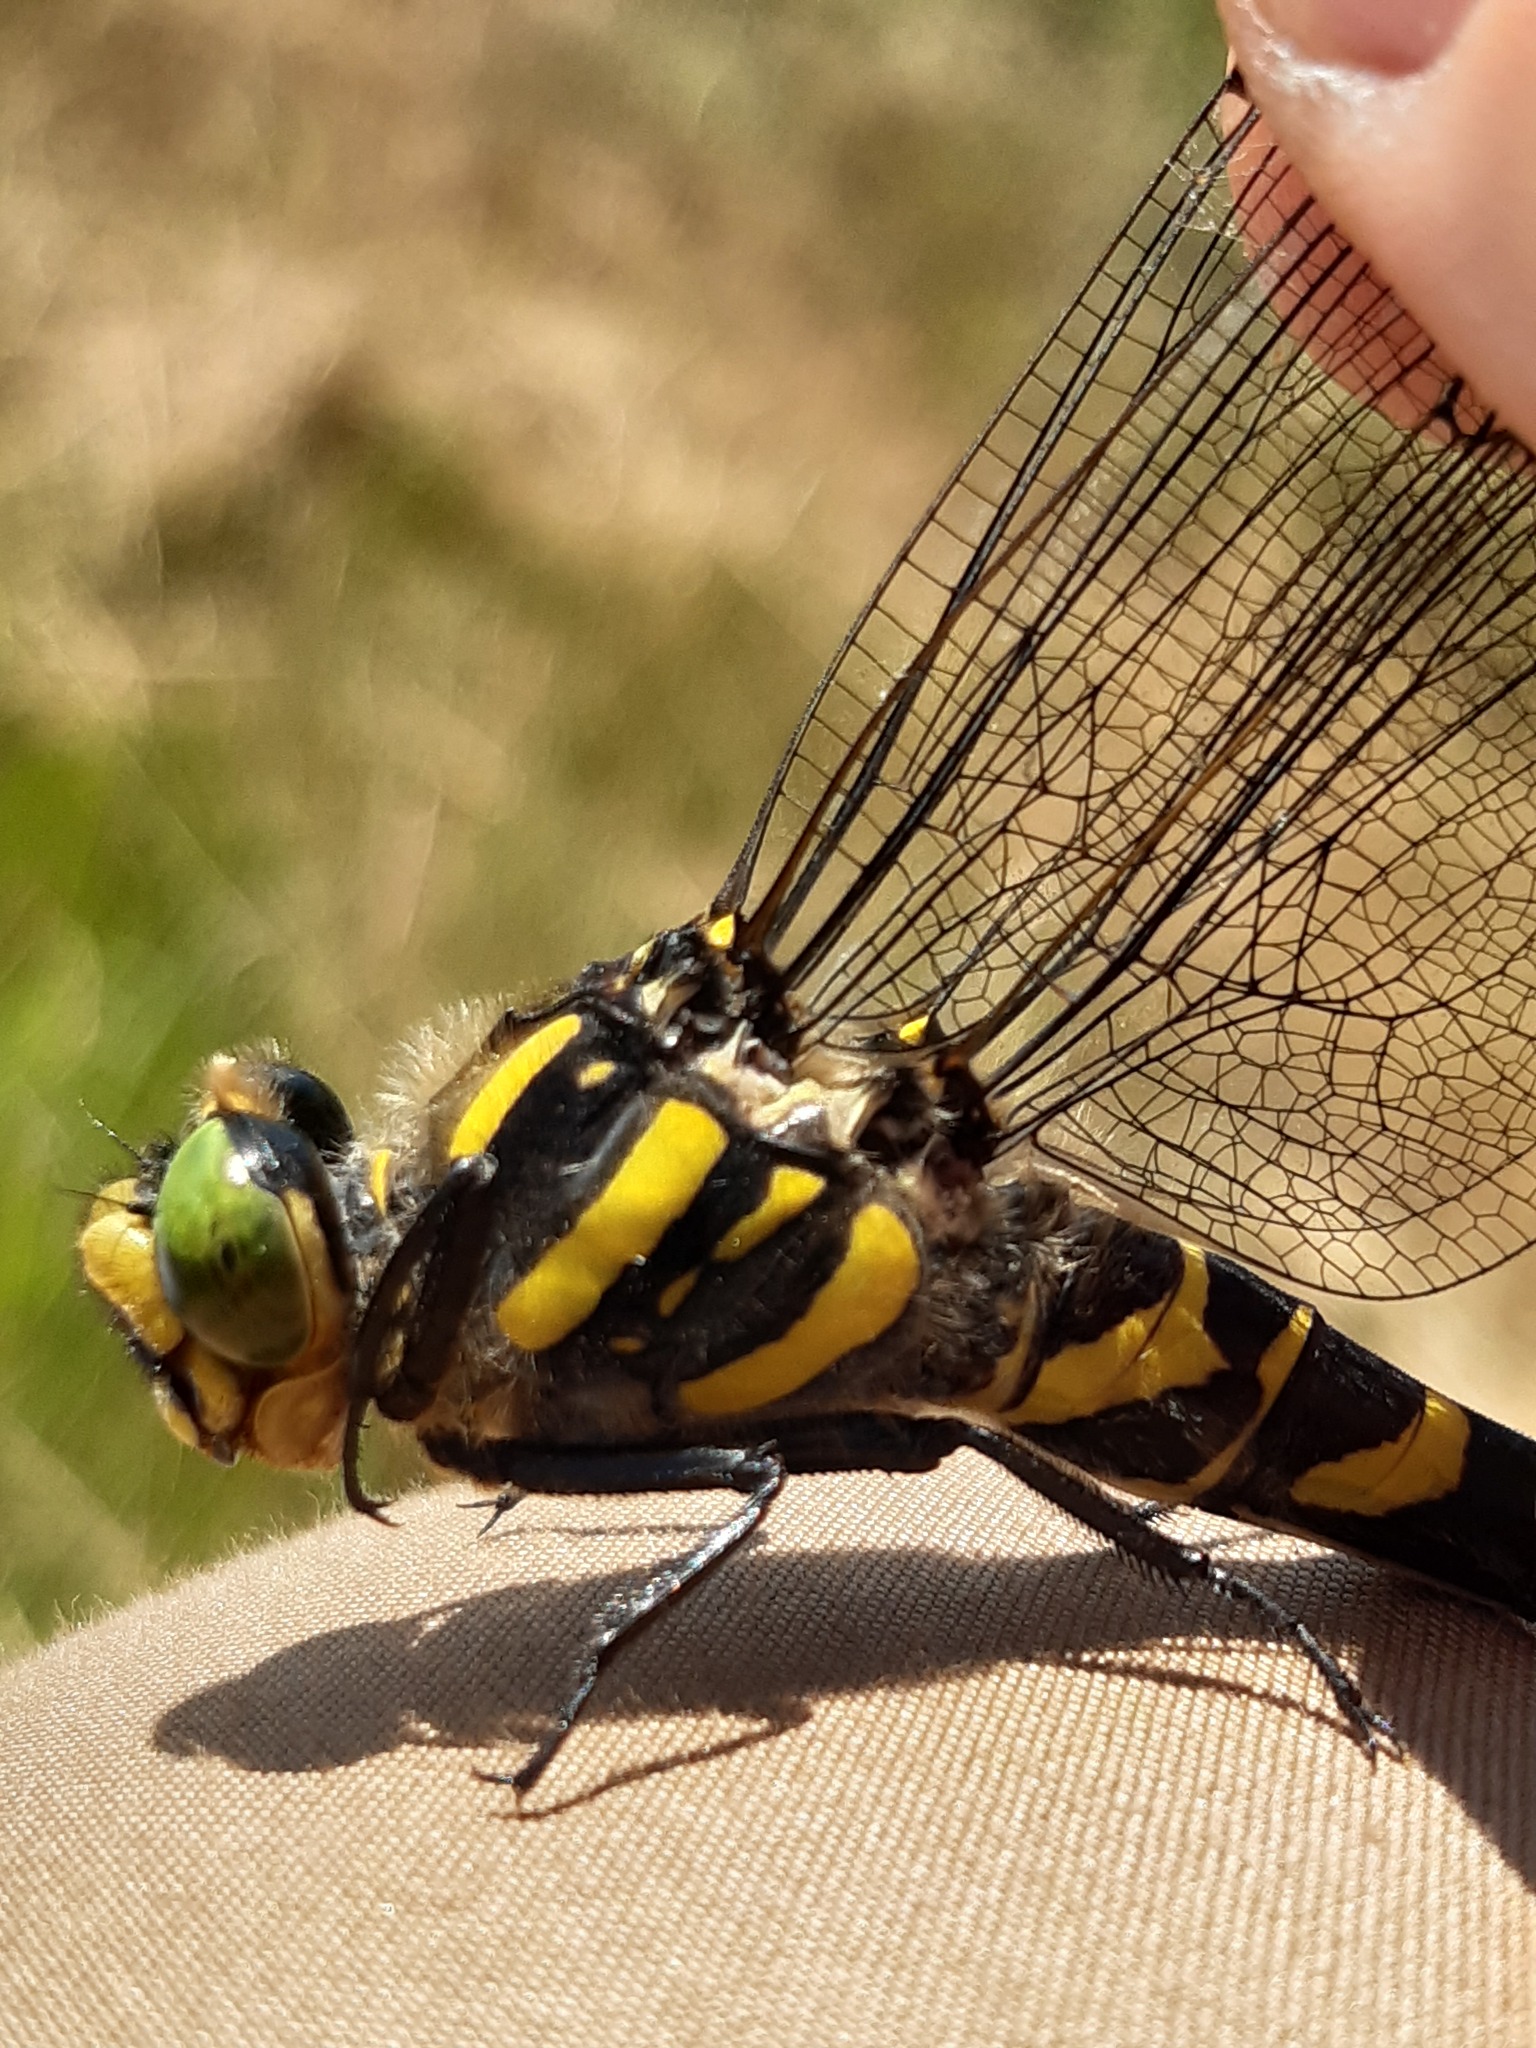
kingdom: Animalia
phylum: Arthropoda
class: Insecta
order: Odonata
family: Cordulegastridae
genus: Cordulegaster
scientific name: Cordulegaster boltonii
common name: Golden-ringed dragonfly
